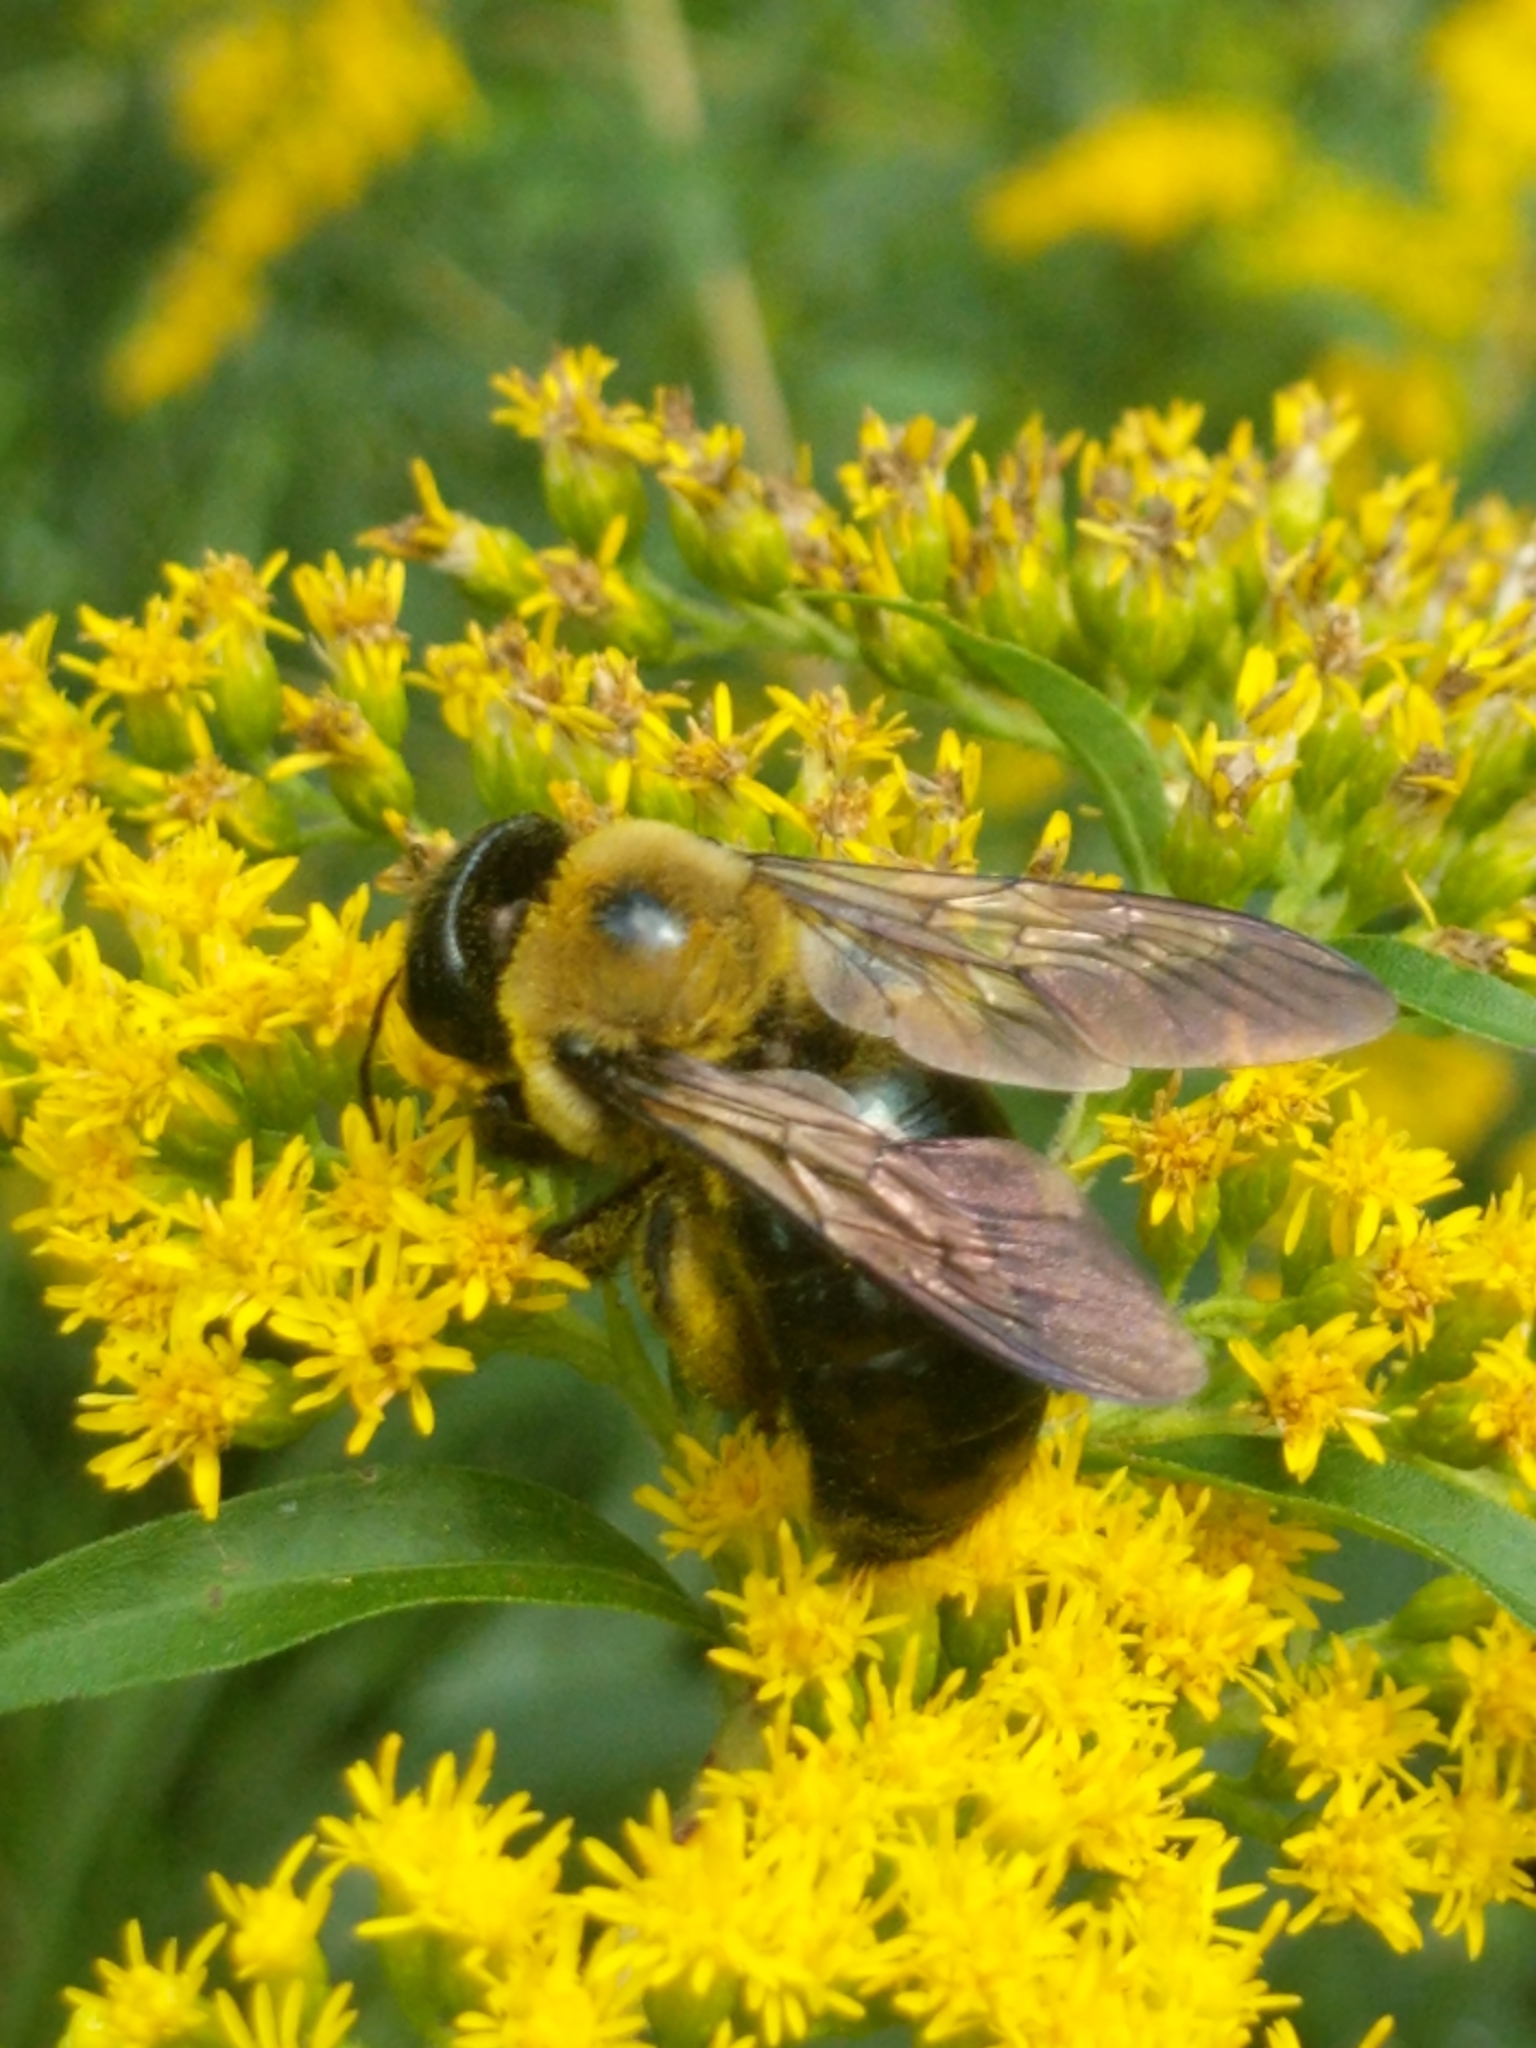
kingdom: Animalia
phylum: Arthropoda
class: Insecta
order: Hymenoptera
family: Apidae
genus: Xylocopa
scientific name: Xylocopa virginica
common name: Carpenter bee
